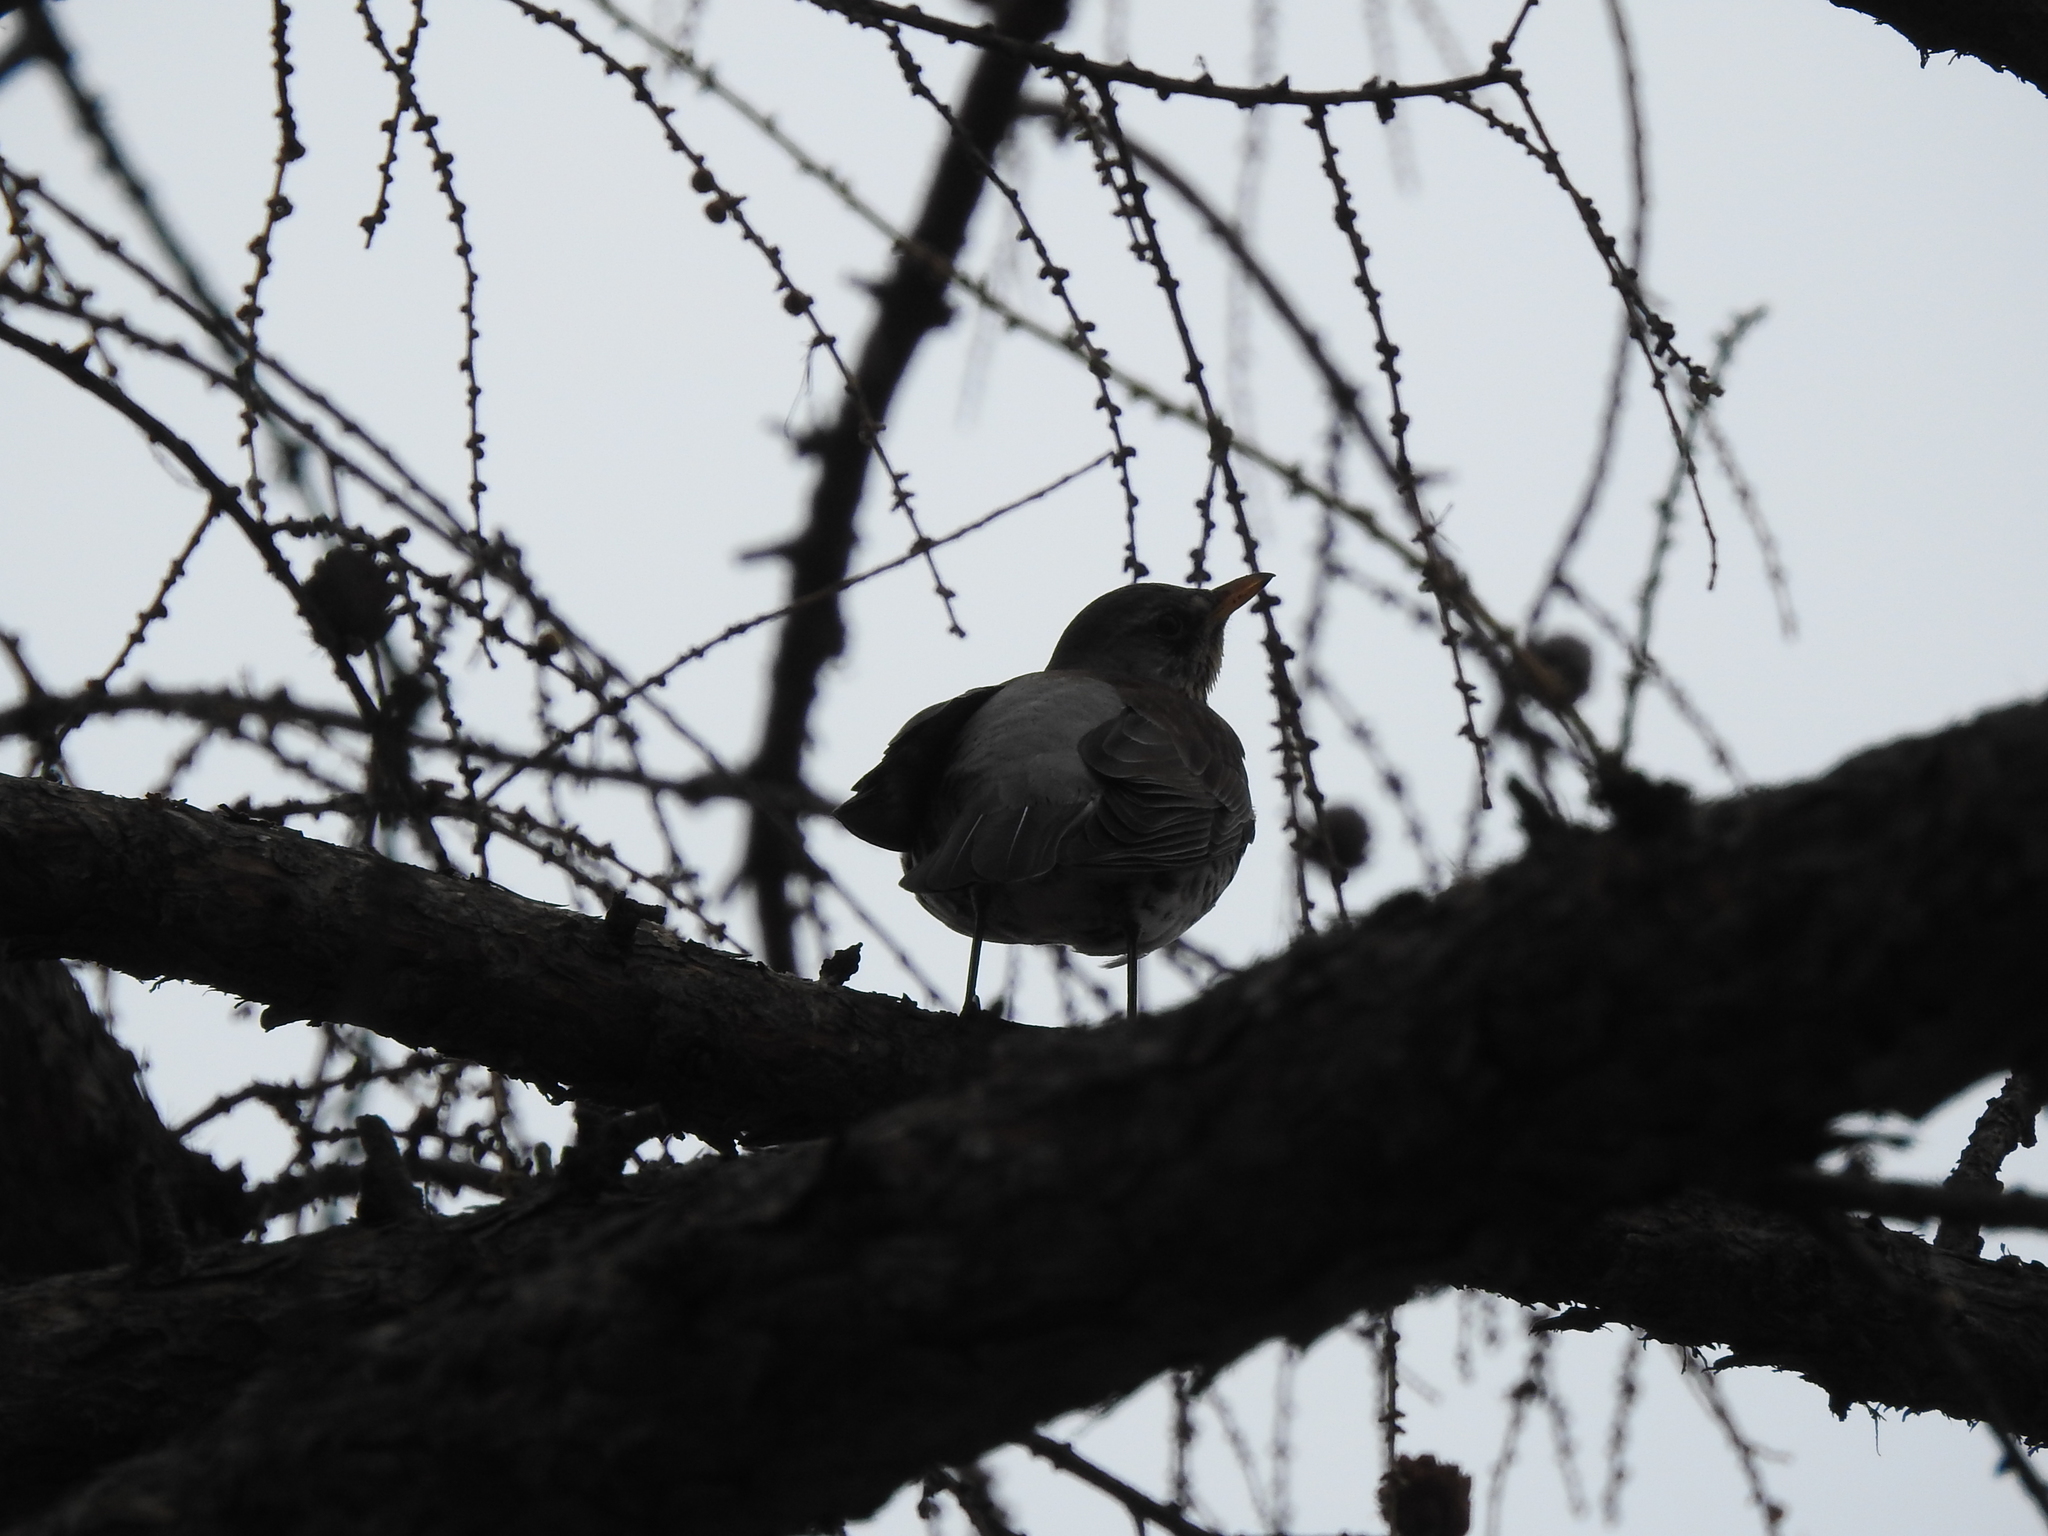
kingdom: Animalia
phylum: Chordata
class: Aves
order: Passeriformes
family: Turdidae
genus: Turdus
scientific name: Turdus pilaris
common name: Fieldfare
